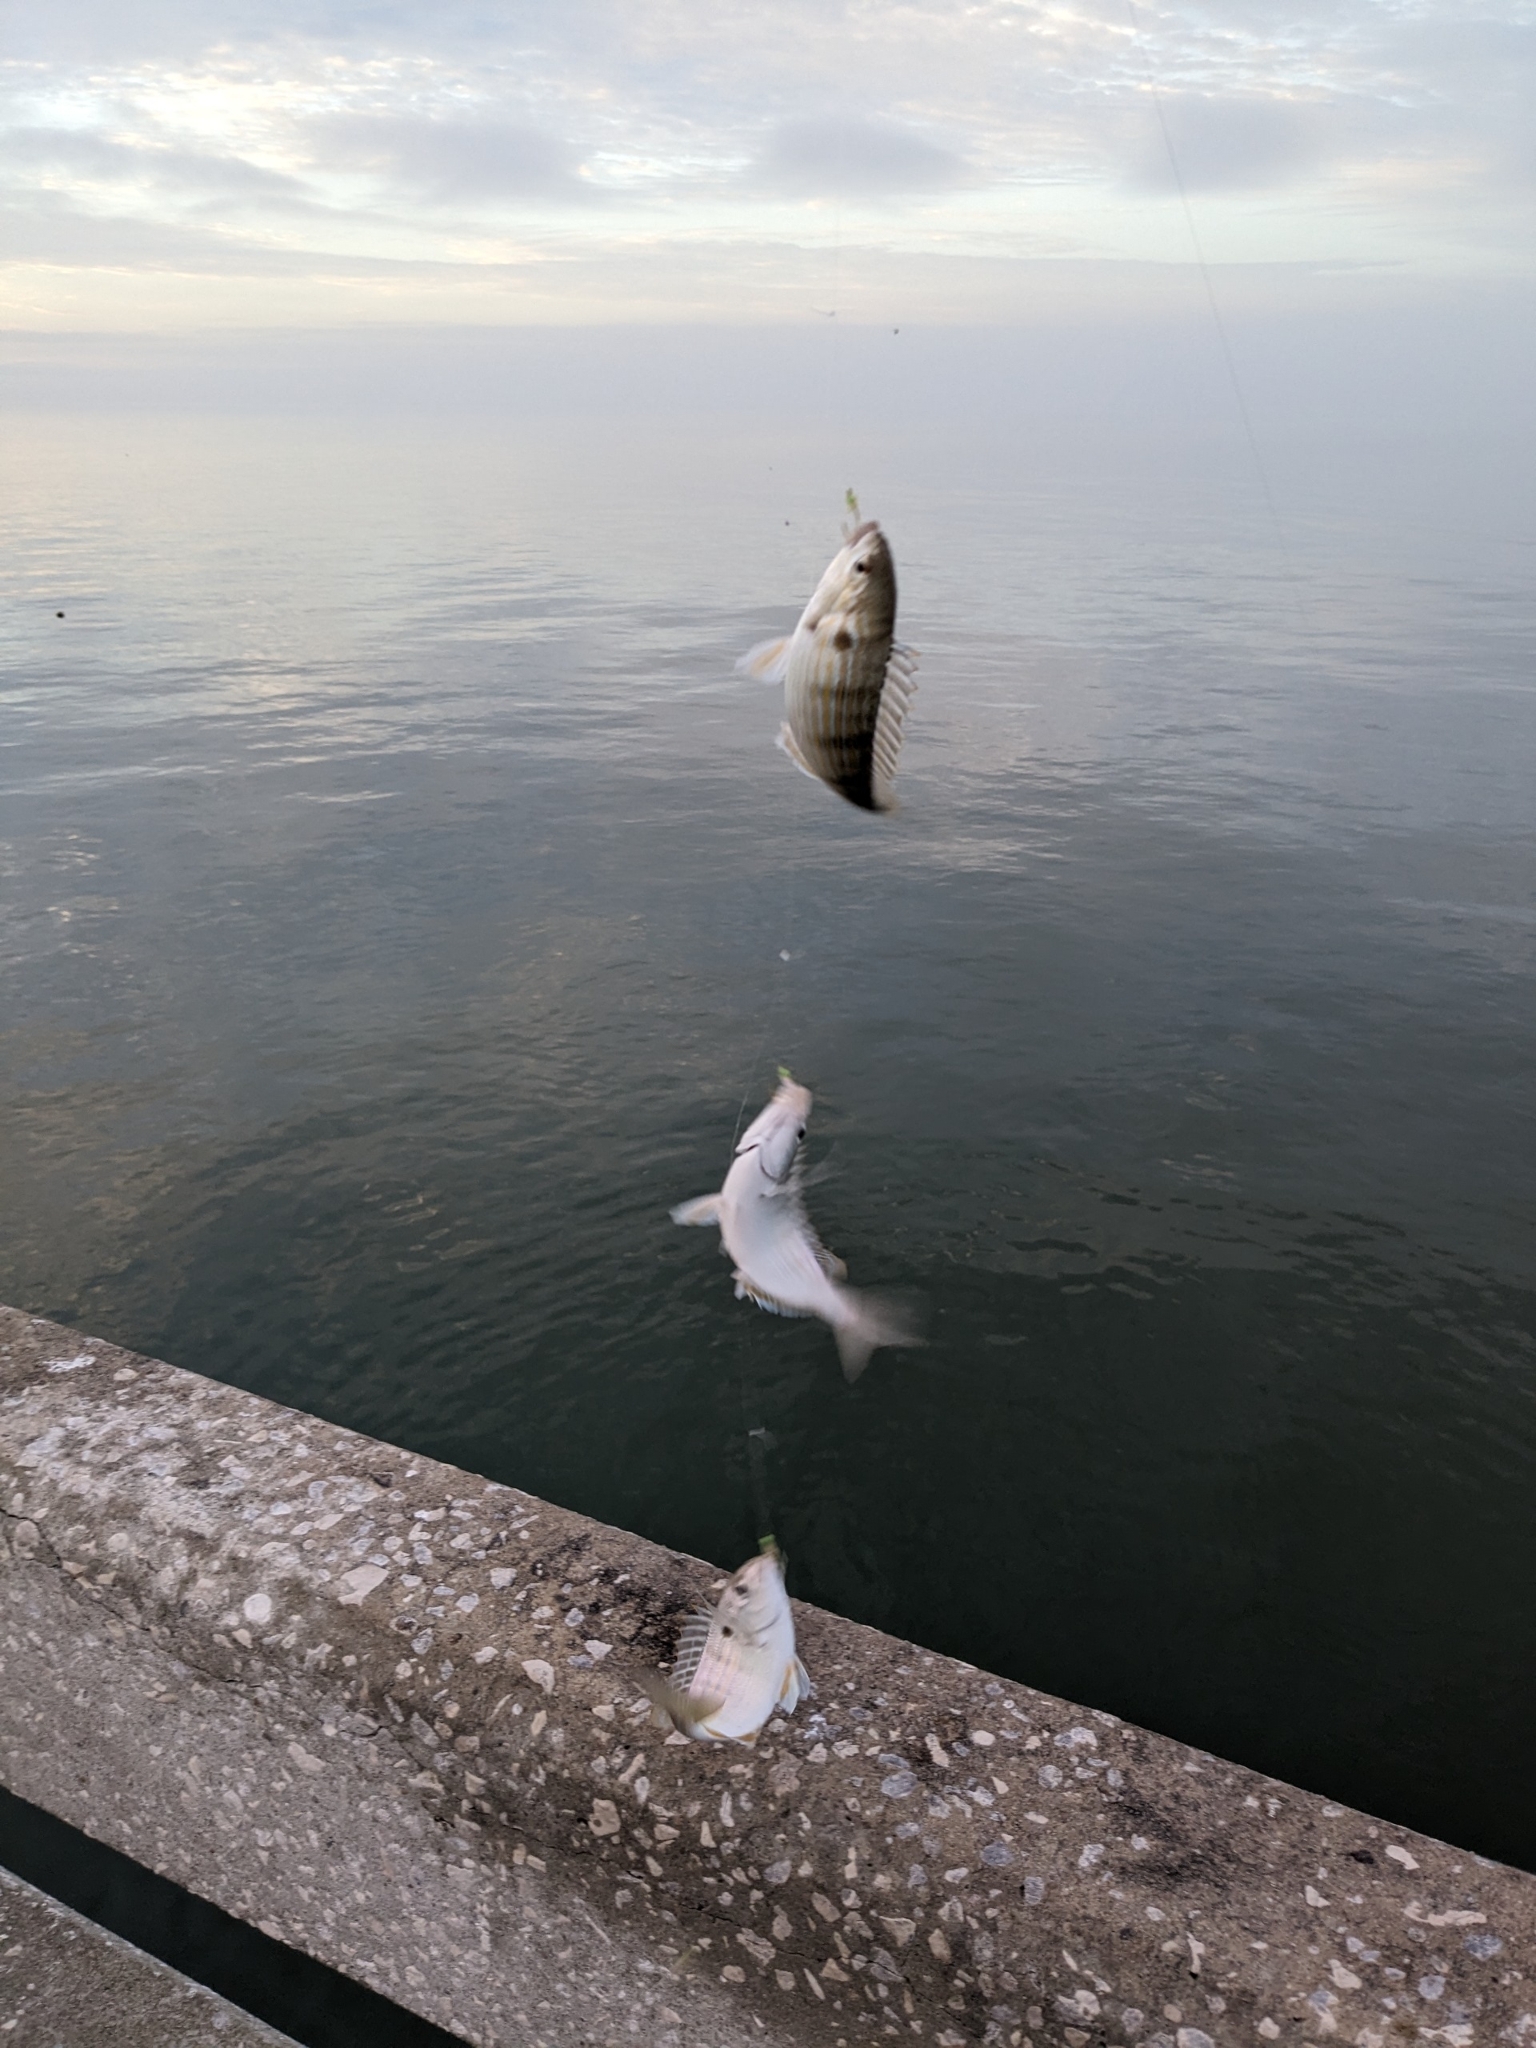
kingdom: Animalia
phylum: Chordata
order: Perciformes
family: Sparidae
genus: Lagodon
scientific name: Lagodon rhomboides
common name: Pinfish
